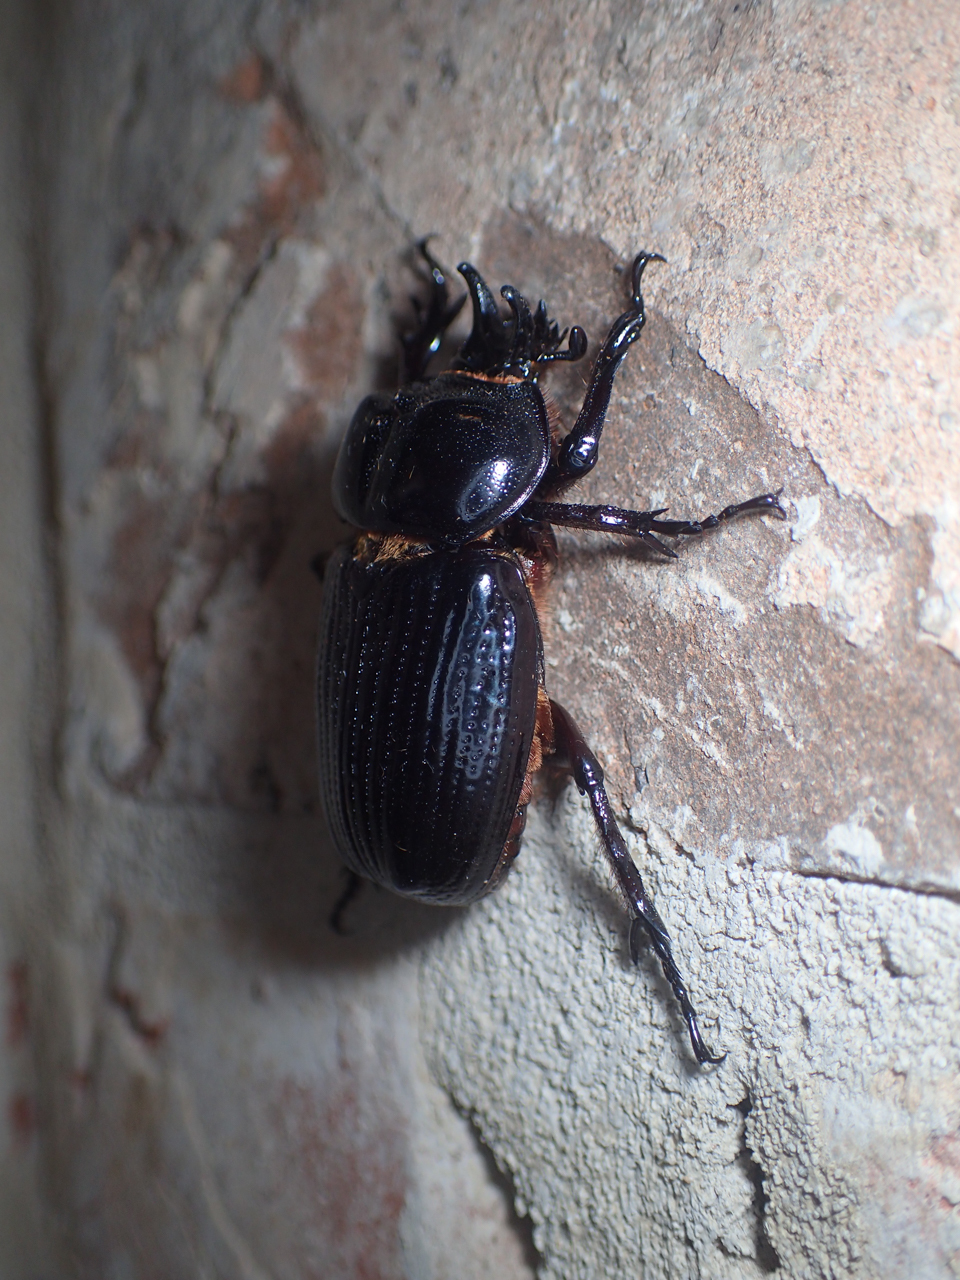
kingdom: Animalia
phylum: Arthropoda
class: Insecta
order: Coleoptera
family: Scarabaeidae
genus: Phileurus
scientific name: Phileurus truncatus
